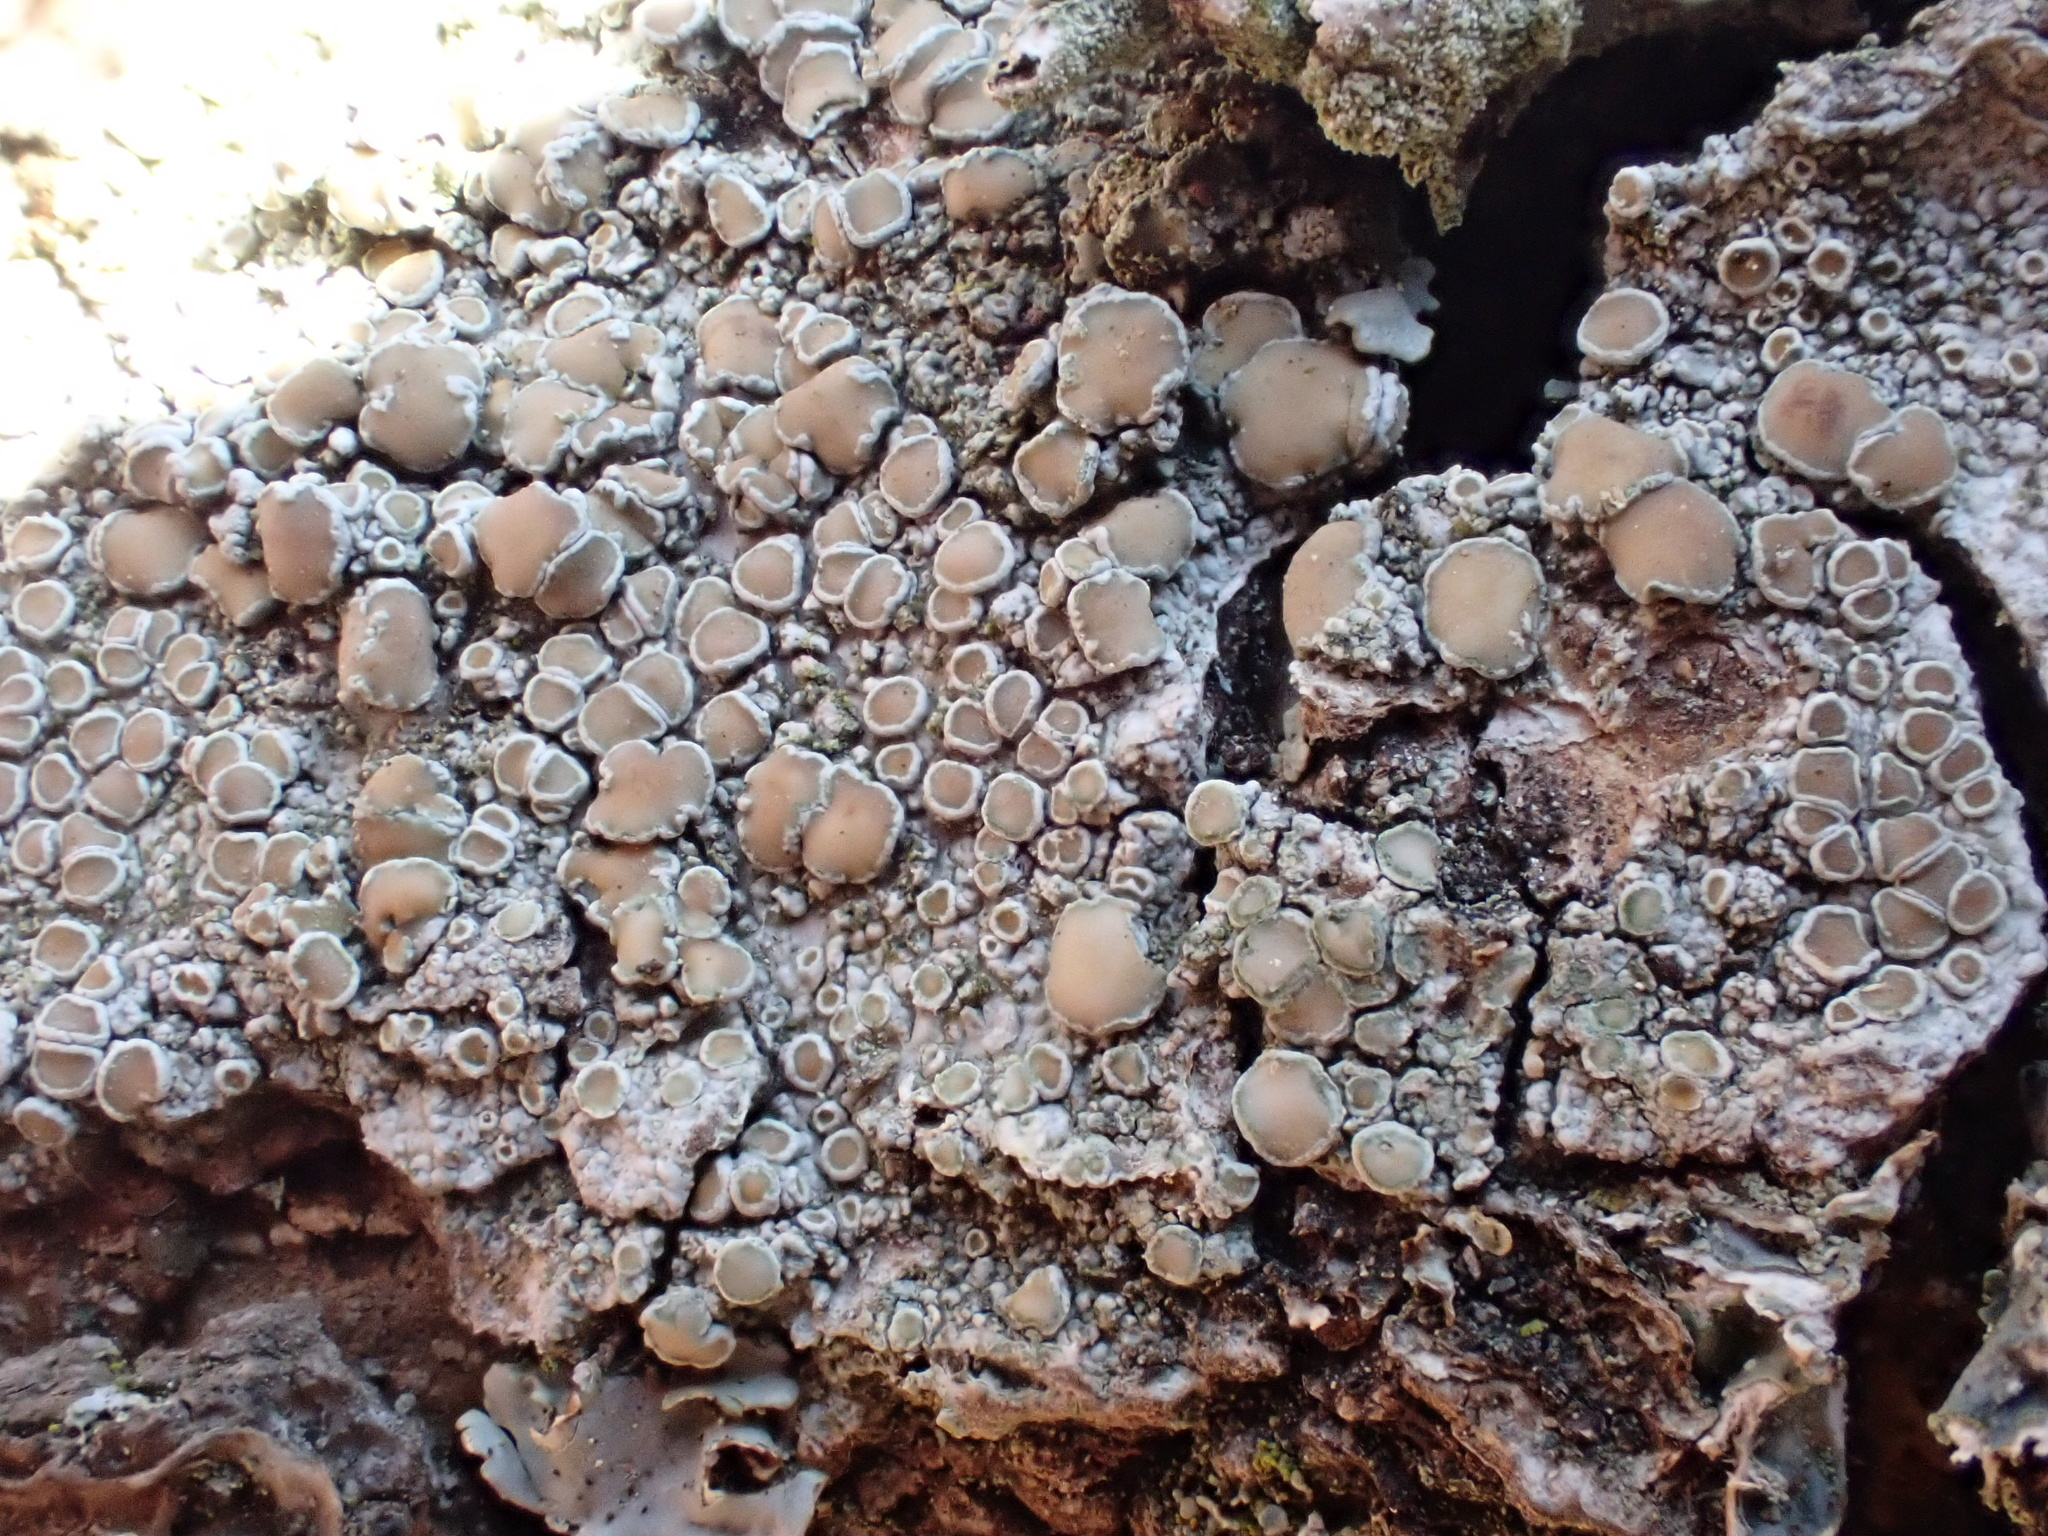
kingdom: Fungi
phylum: Ascomycota
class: Lecanoromycetes
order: Lecanorales
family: Lecanoraceae
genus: Lecanora
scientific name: Lecanora chlarotera
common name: Brown rim-lichen
